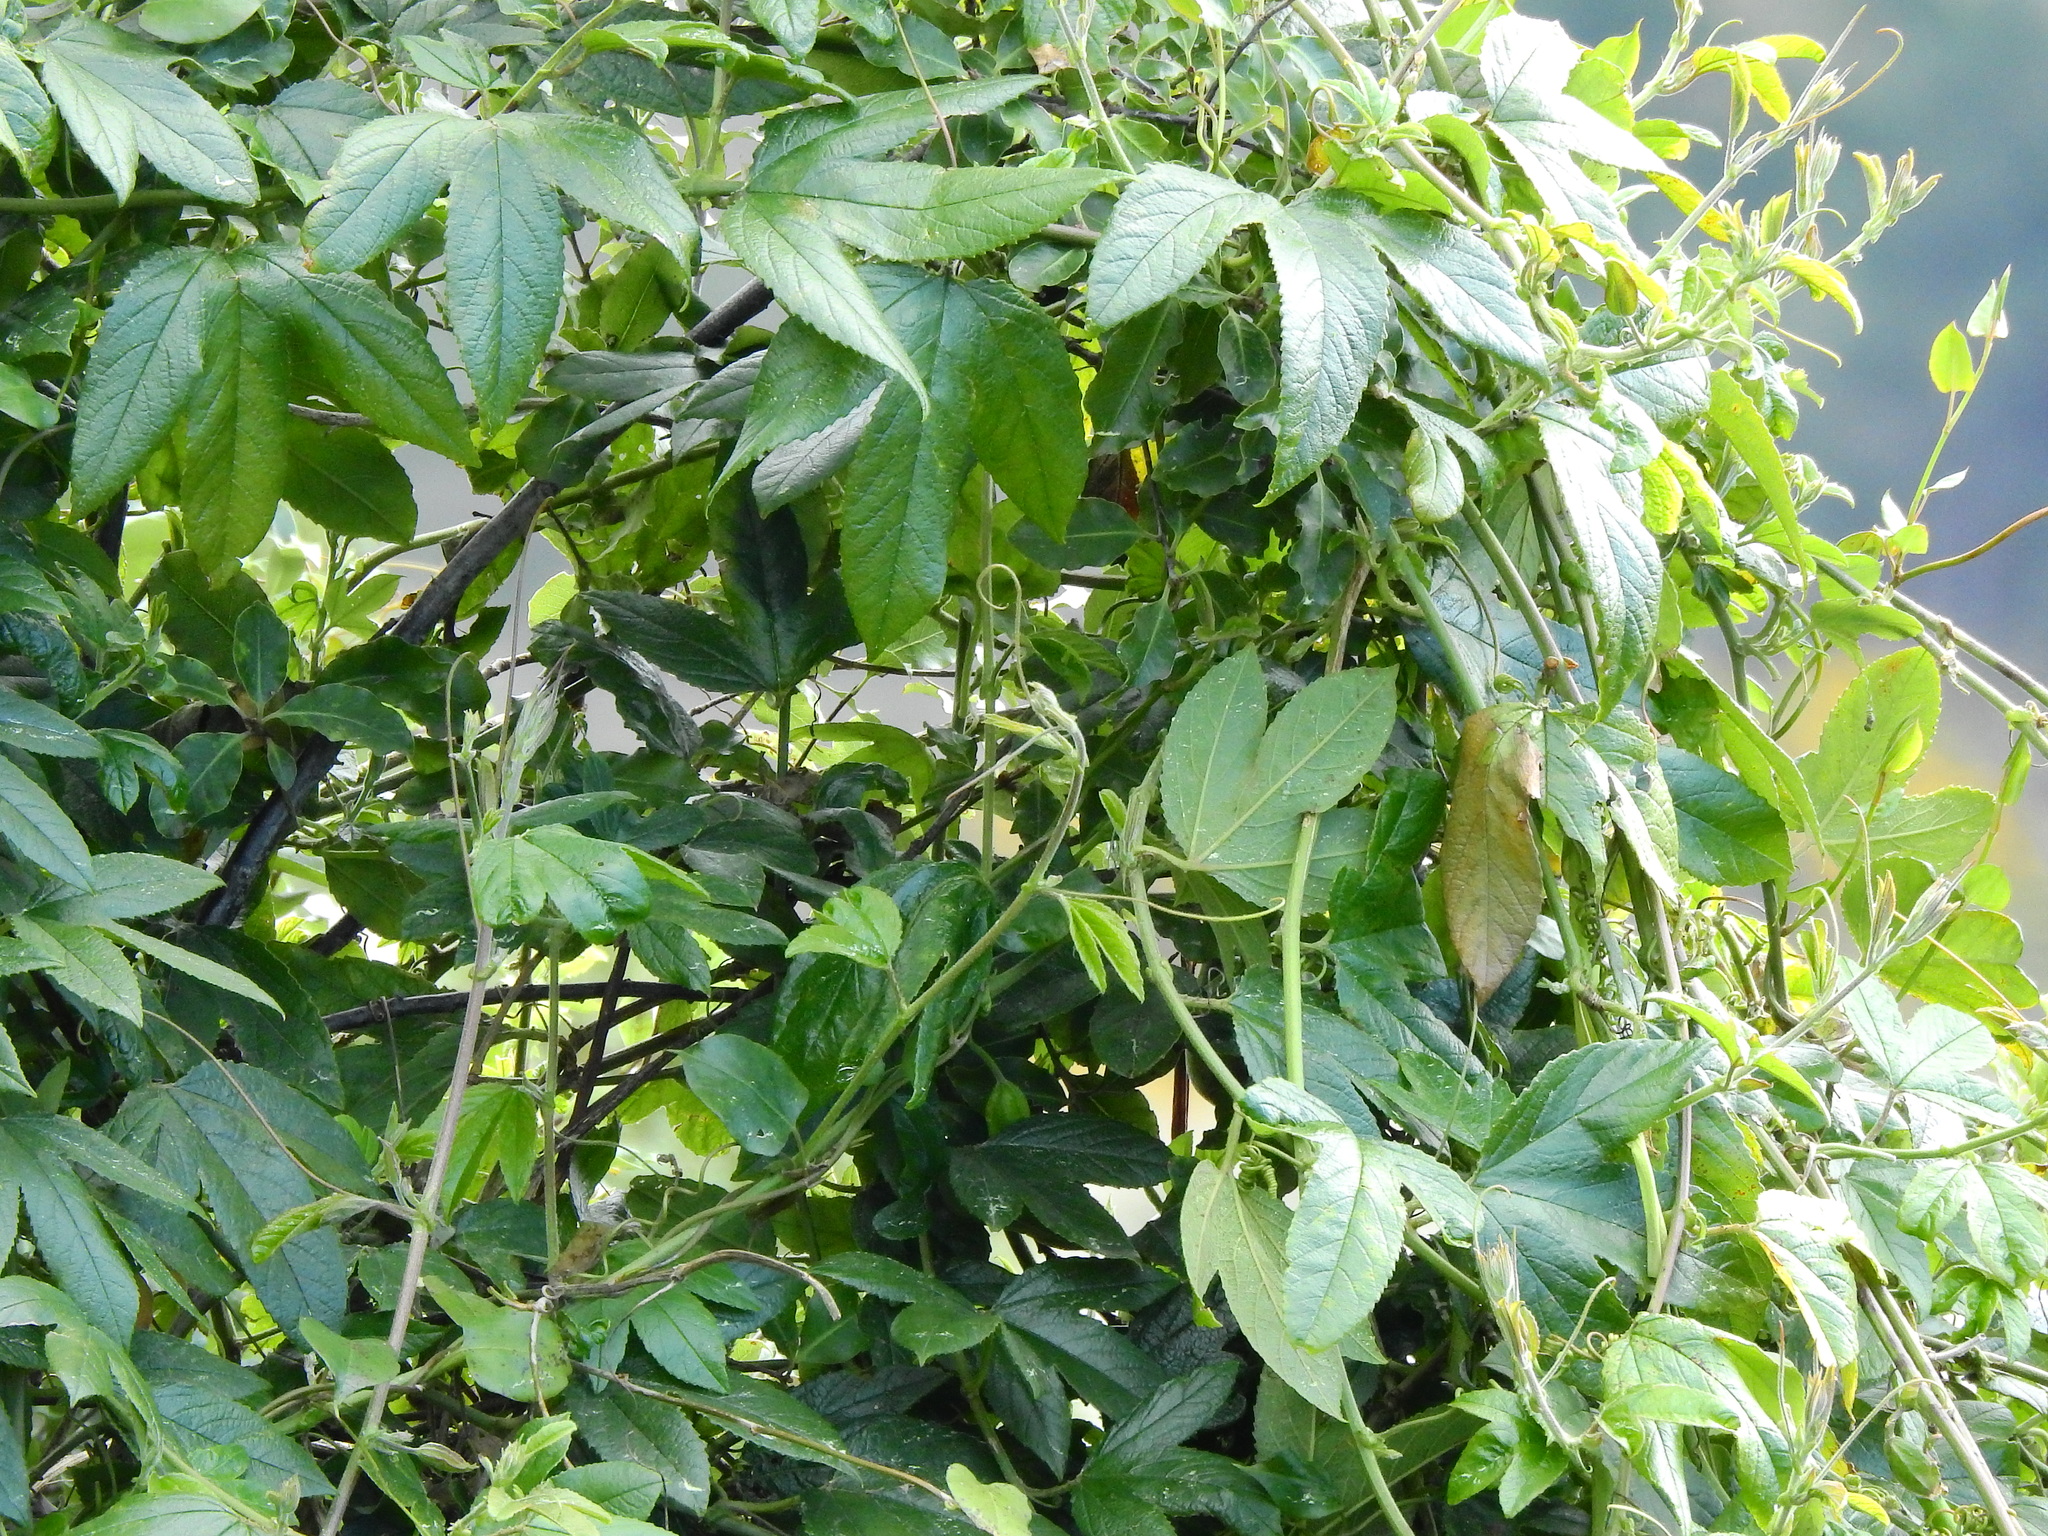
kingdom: Plantae
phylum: Tracheophyta
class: Magnoliopsida
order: Malpighiales
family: Passifloraceae
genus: Passiflora
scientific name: Passiflora tripartita
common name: Banana poka
